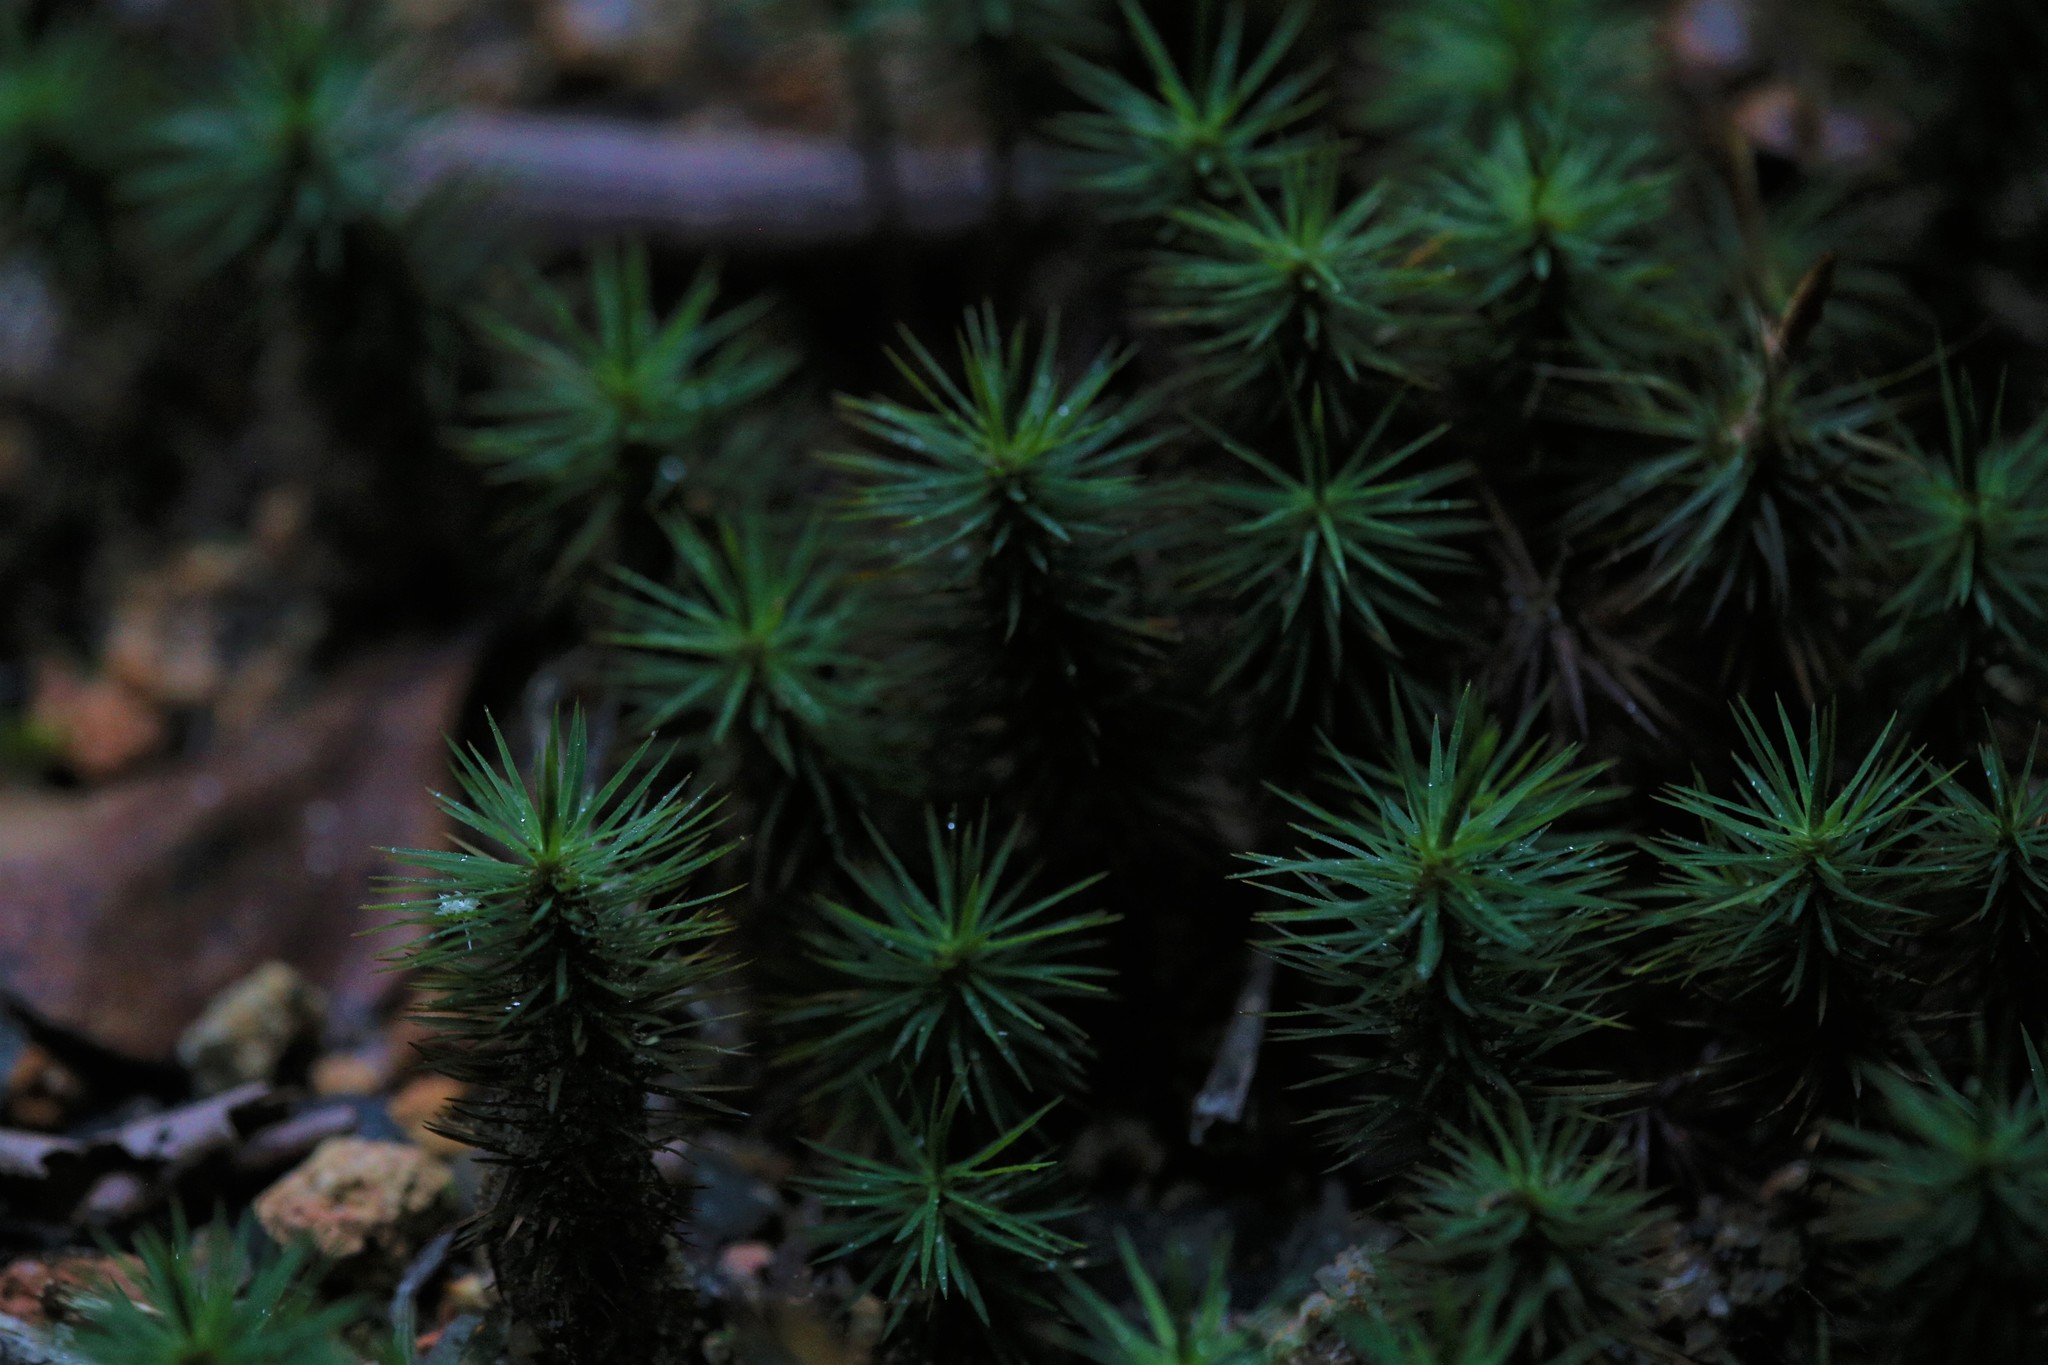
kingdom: Plantae
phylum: Bryophyta
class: Polytrichopsida
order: Polytrichales
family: Polytrichaceae
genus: Dawsonia
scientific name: Dawsonia polytrichoides
